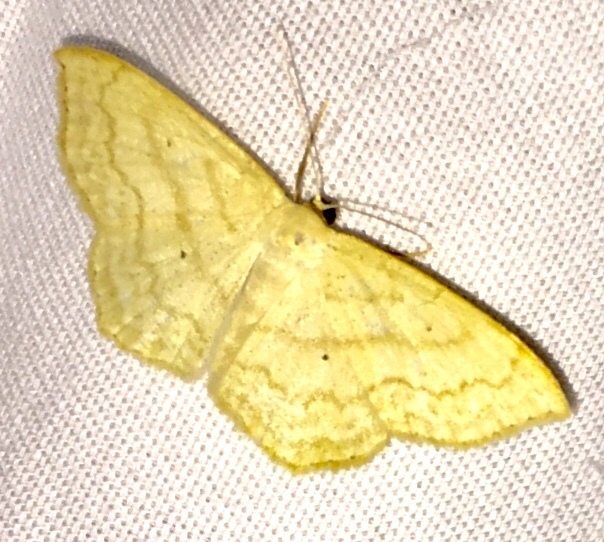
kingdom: Animalia
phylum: Arthropoda
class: Insecta
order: Lepidoptera
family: Geometridae
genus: Scopula
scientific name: Scopula limboundata
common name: Large lace border
